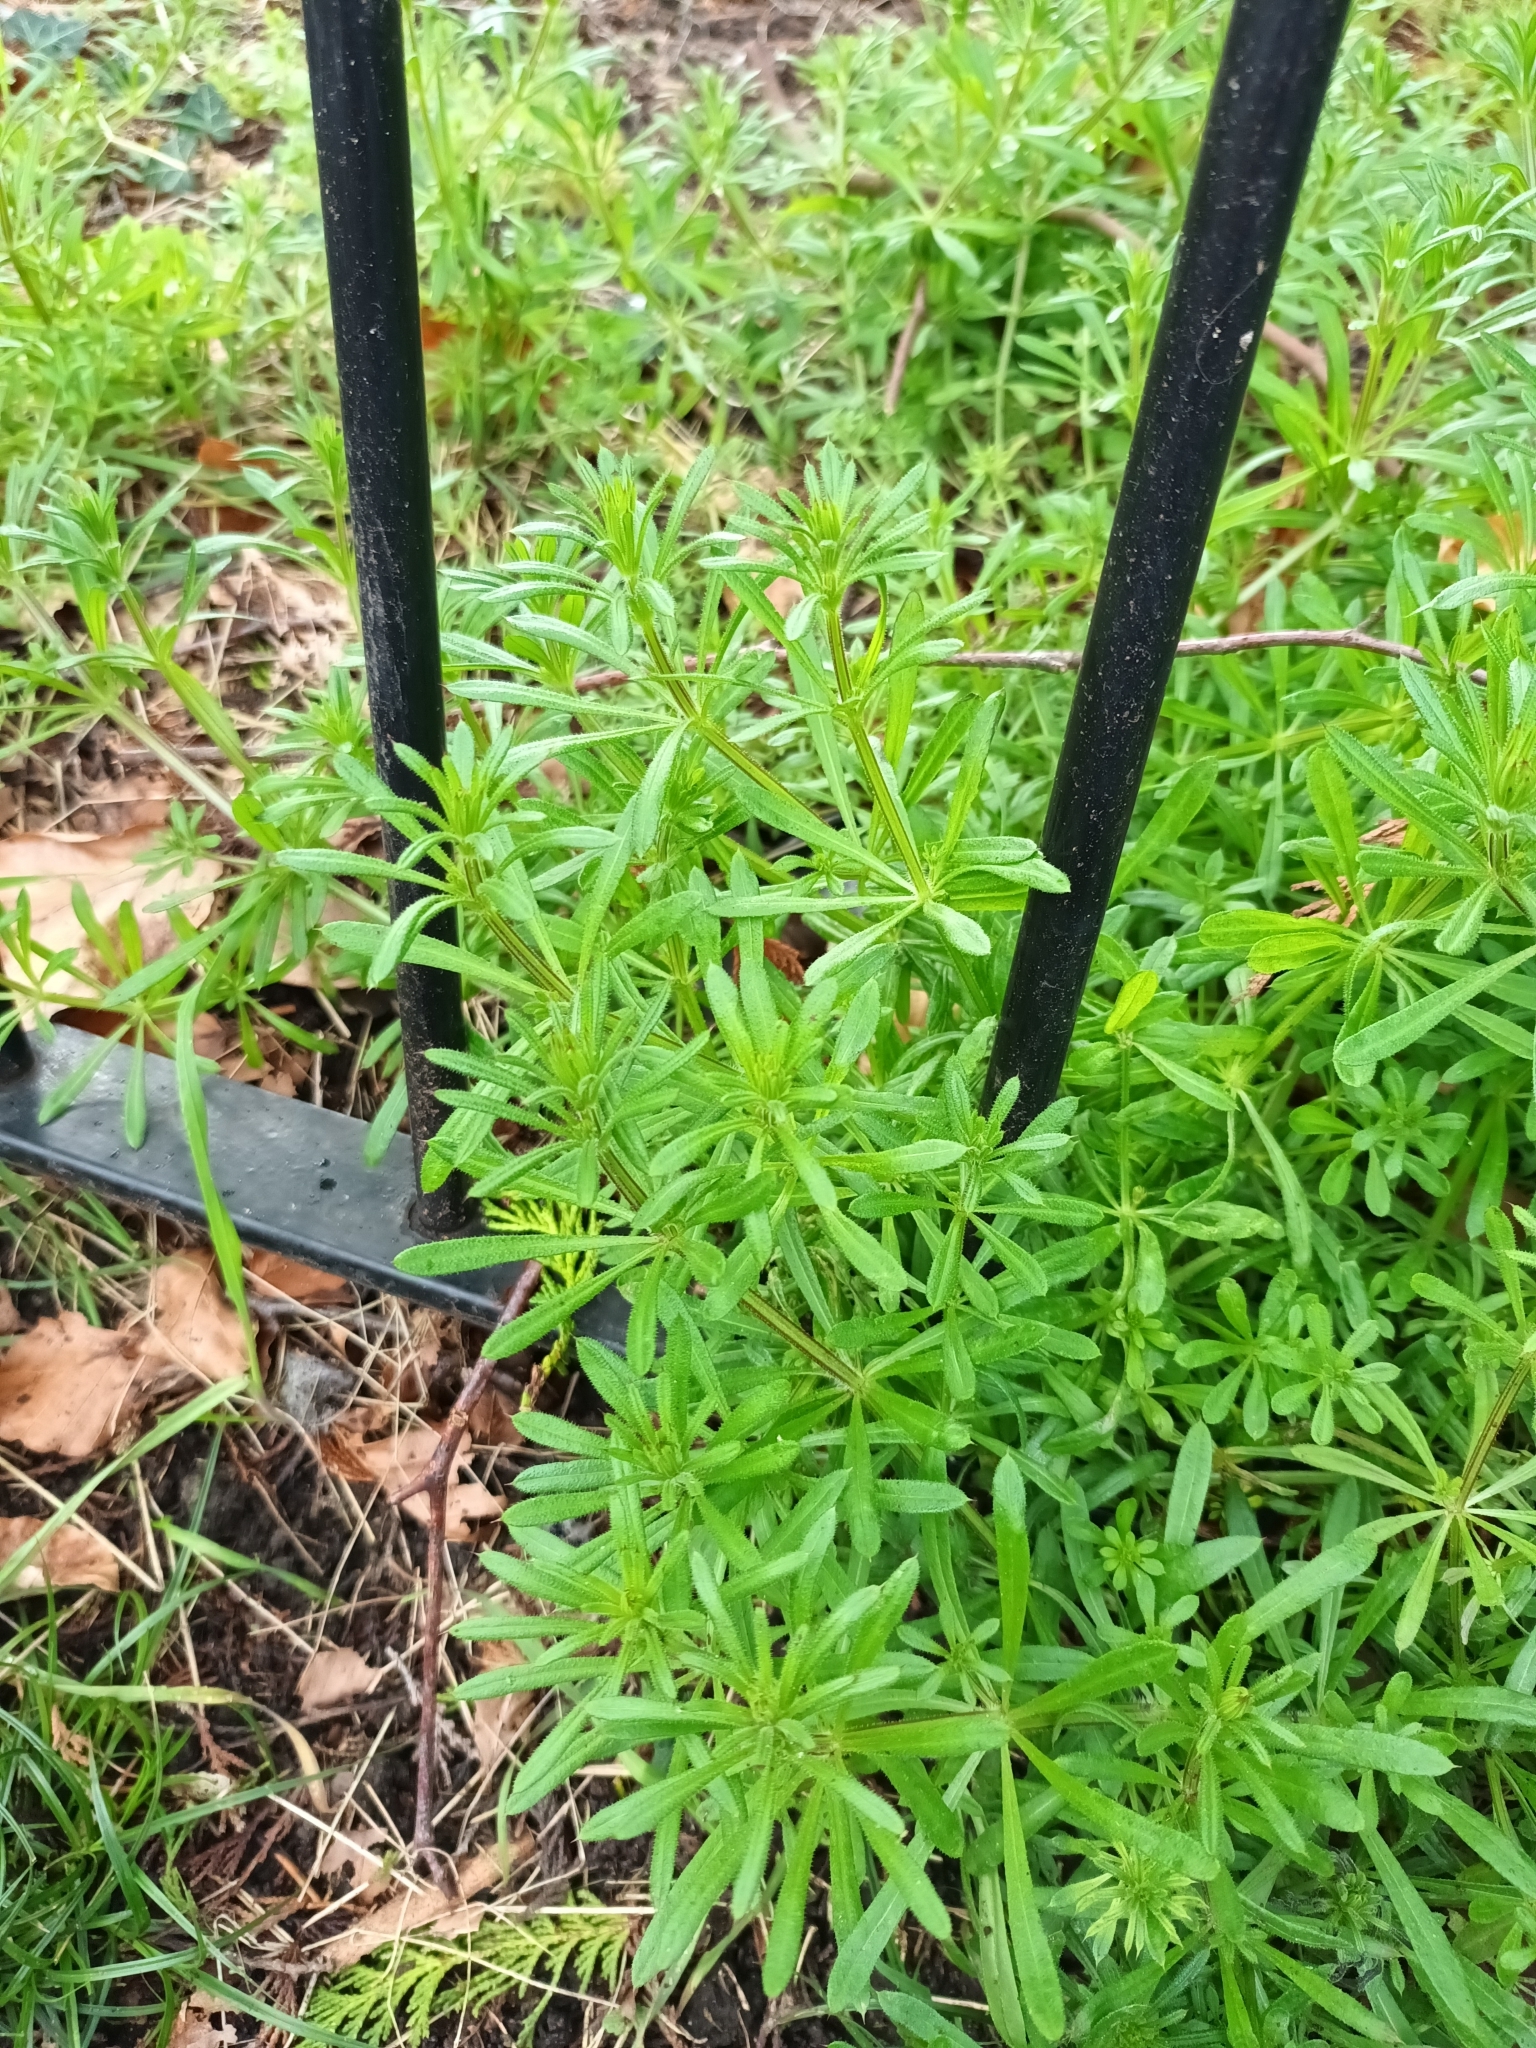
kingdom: Plantae
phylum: Tracheophyta
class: Magnoliopsida
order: Gentianales
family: Rubiaceae
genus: Galium
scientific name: Galium aparine
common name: Cleavers
